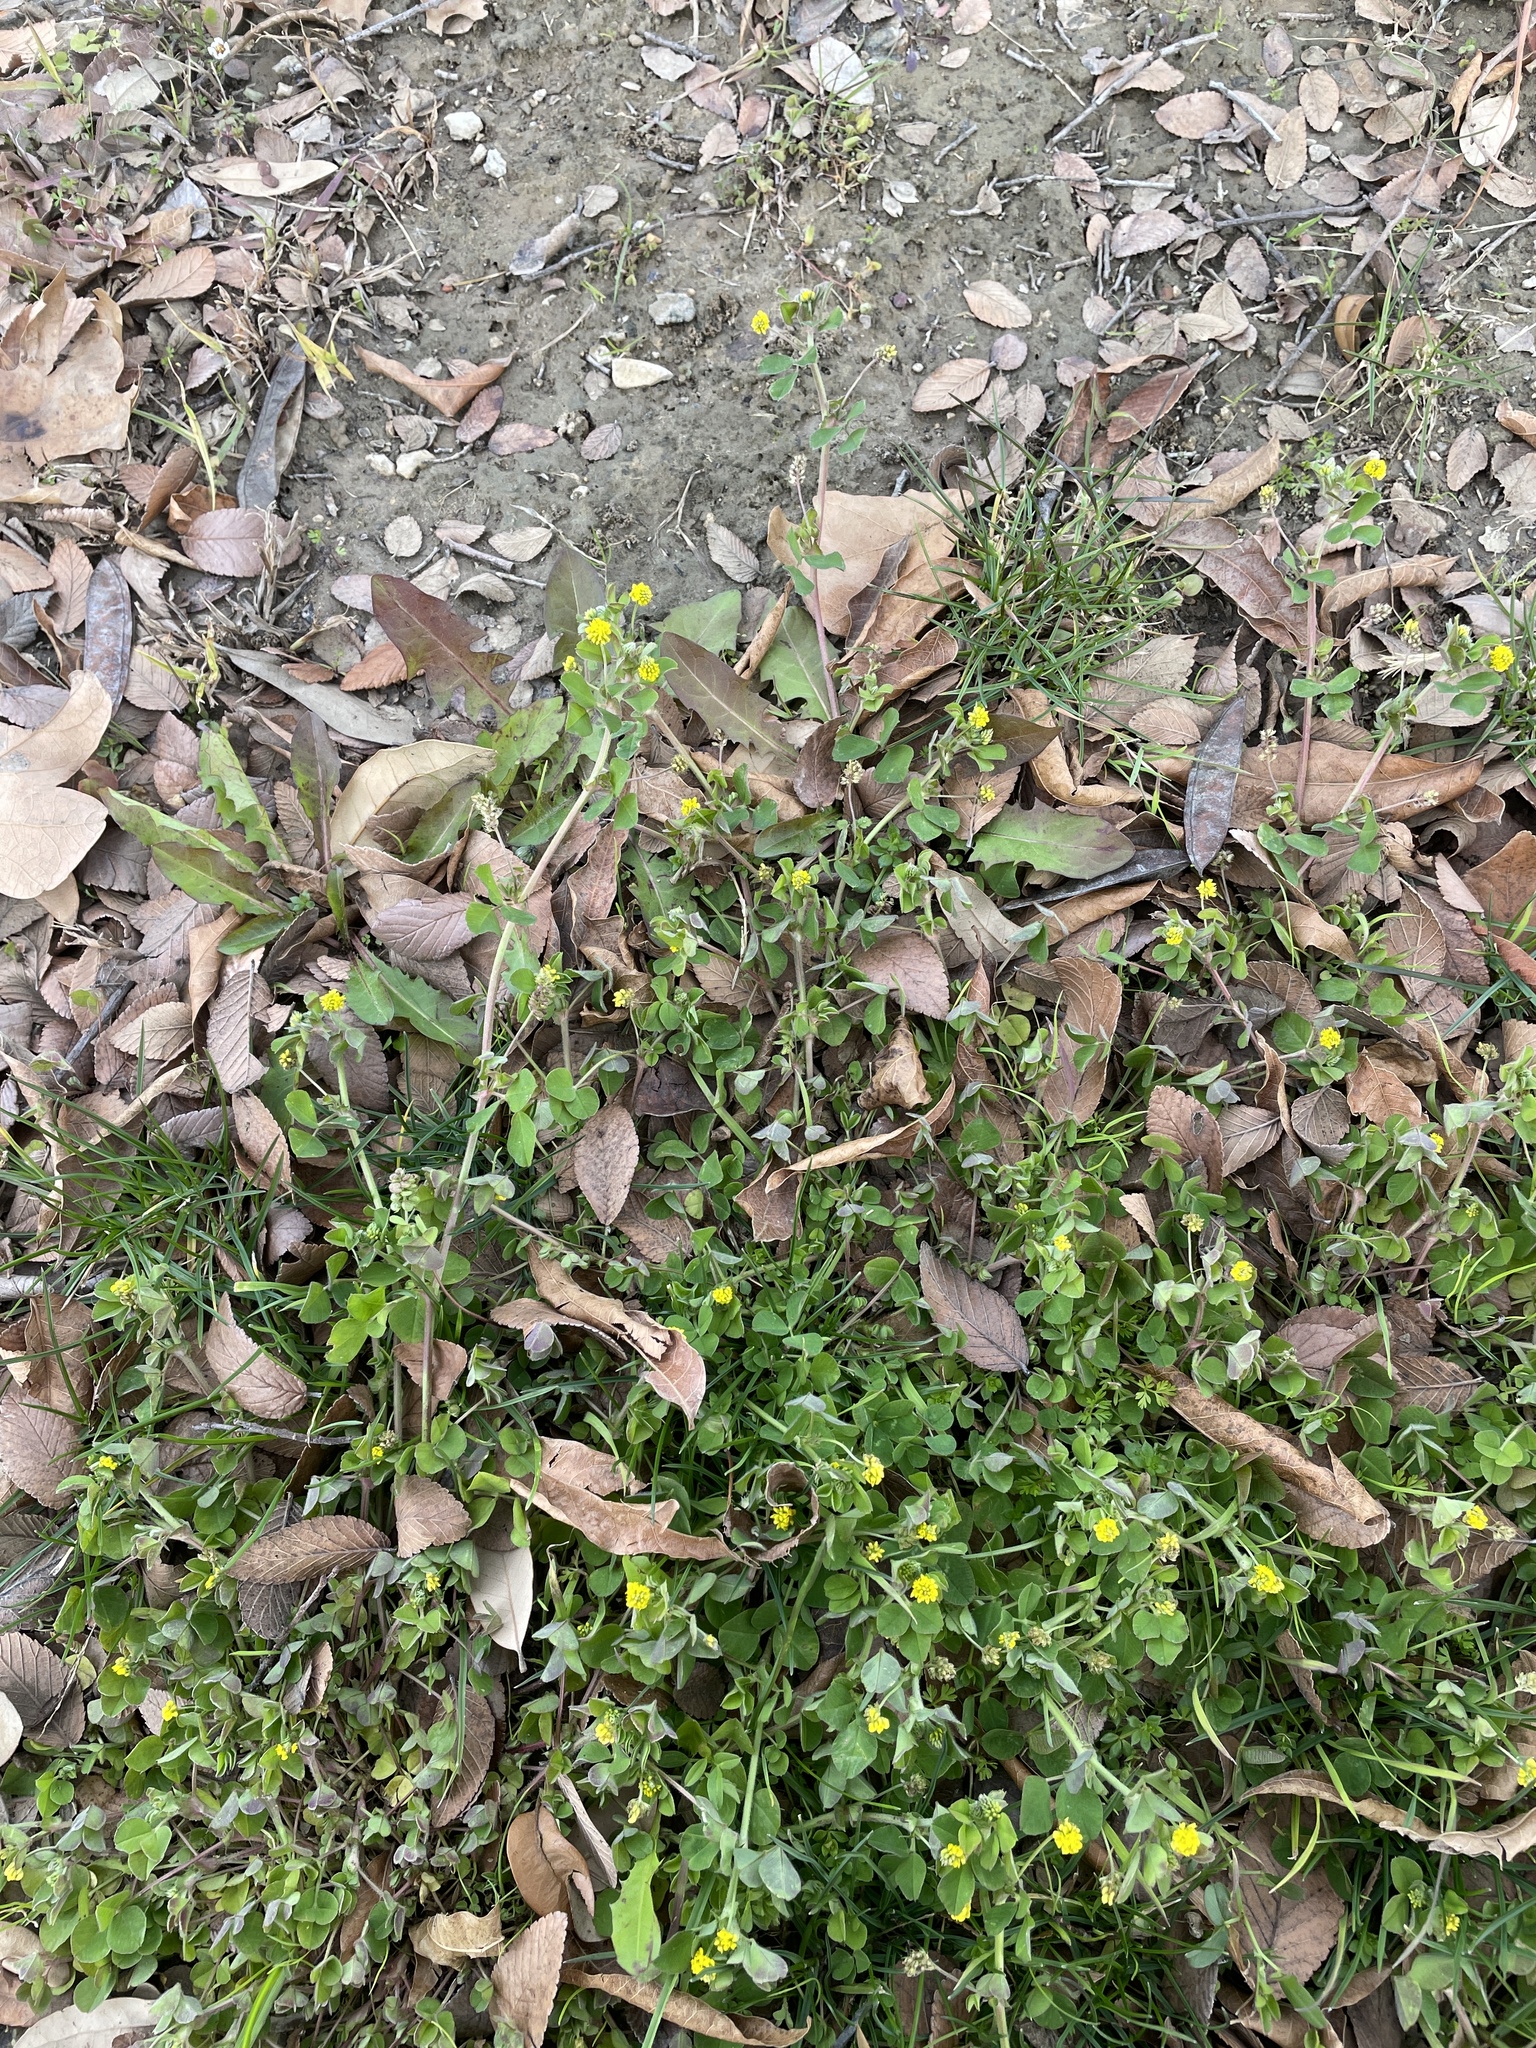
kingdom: Plantae
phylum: Tracheophyta
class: Magnoliopsida
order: Fabales
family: Fabaceae
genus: Medicago
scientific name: Medicago lupulina
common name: Black medick
